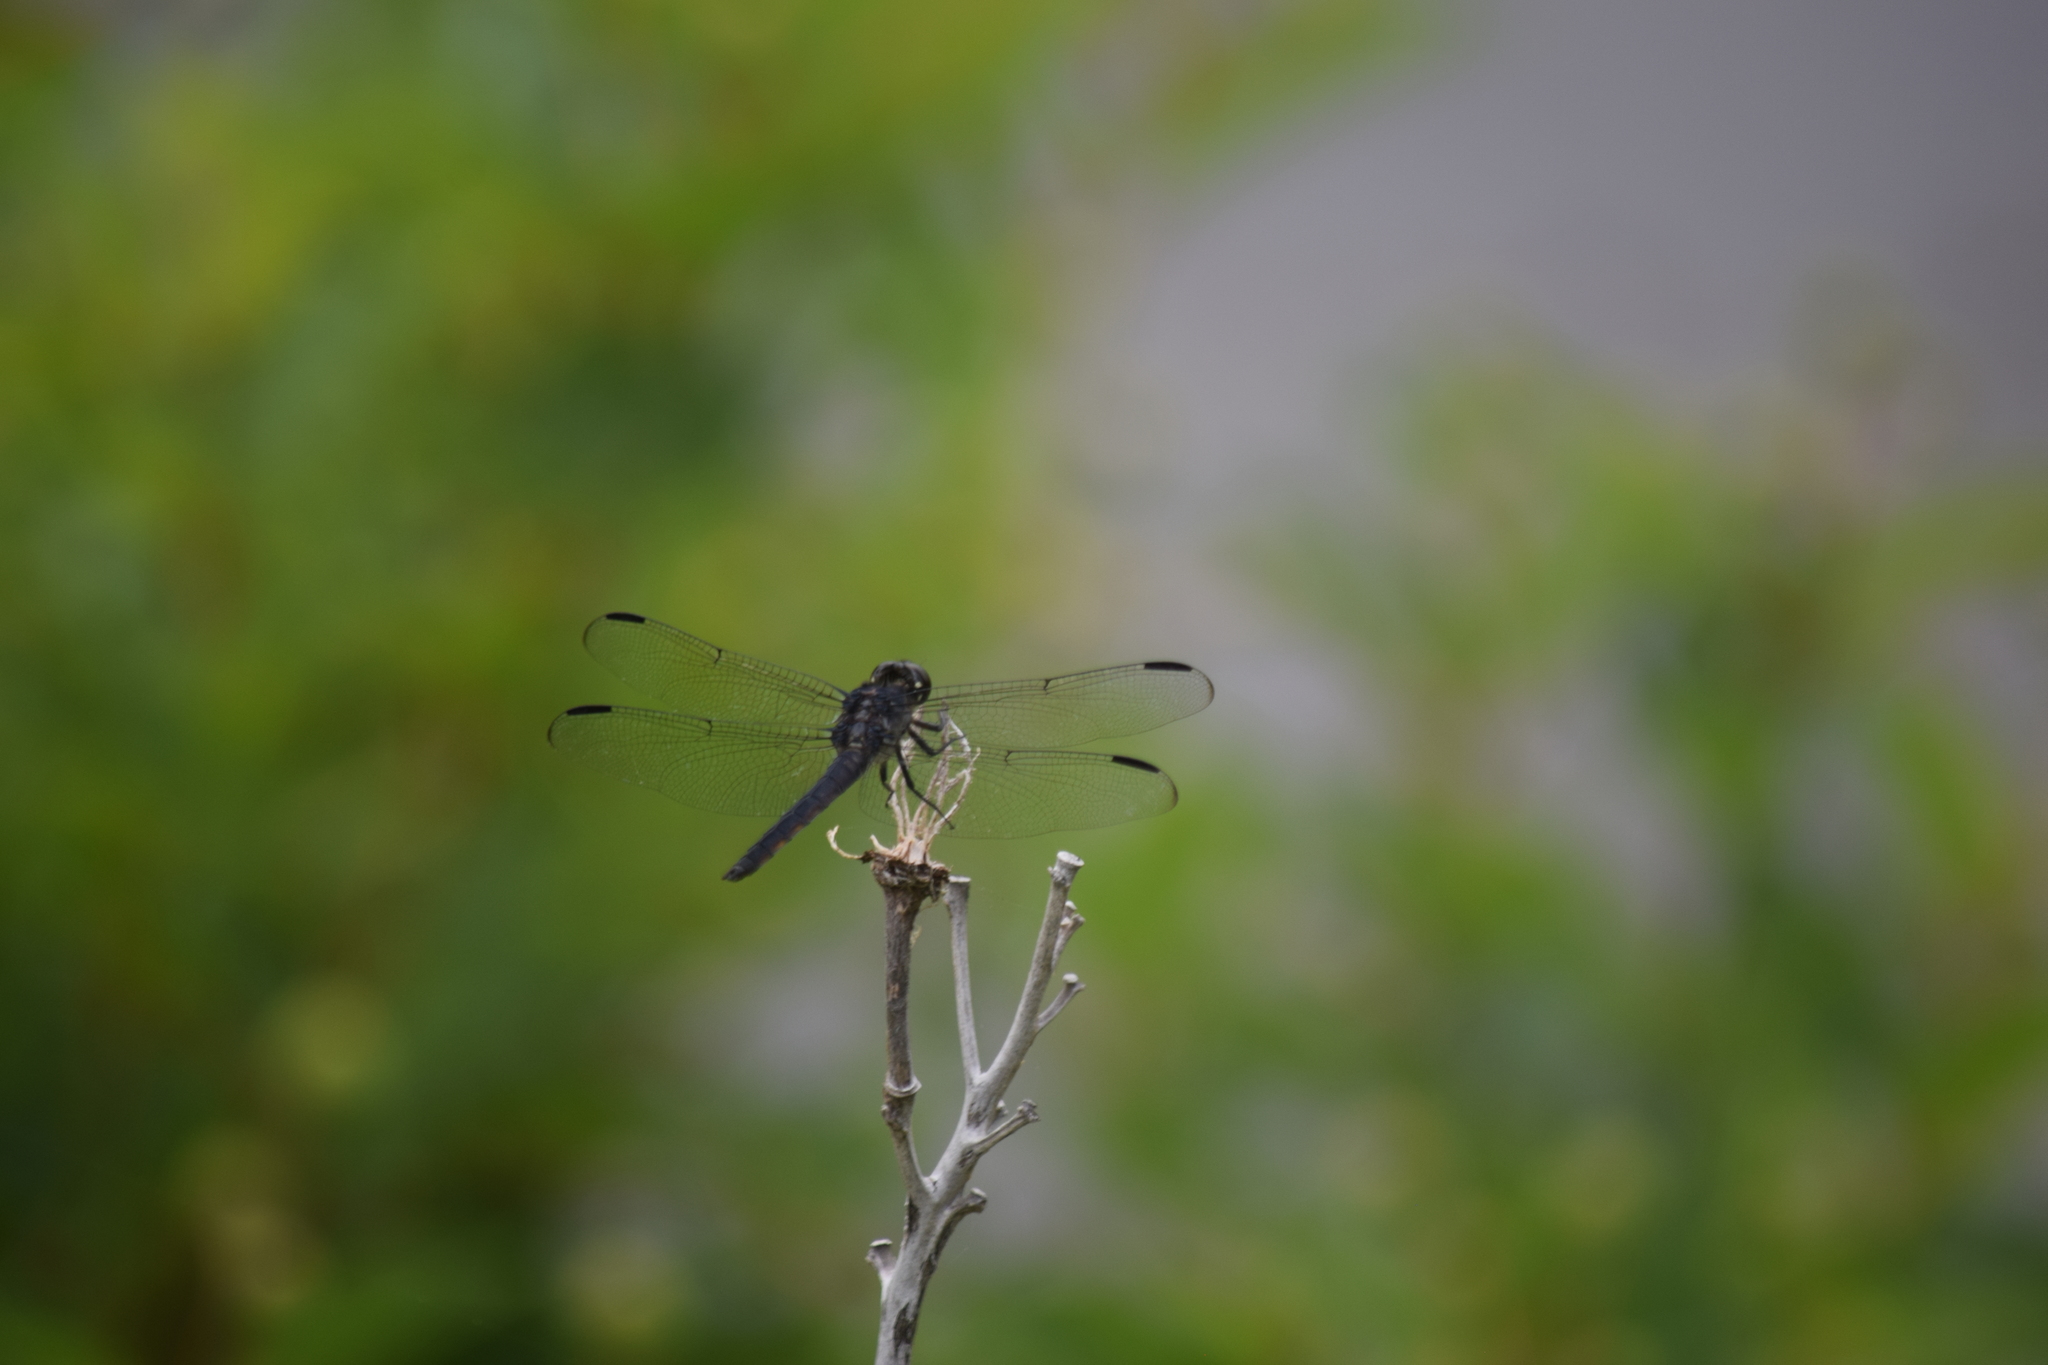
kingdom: Animalia
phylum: Arthropoda
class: Insecta
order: Odonata
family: Libellulidae
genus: Libellula
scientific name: Libellula incesta
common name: Slaty skimmer
